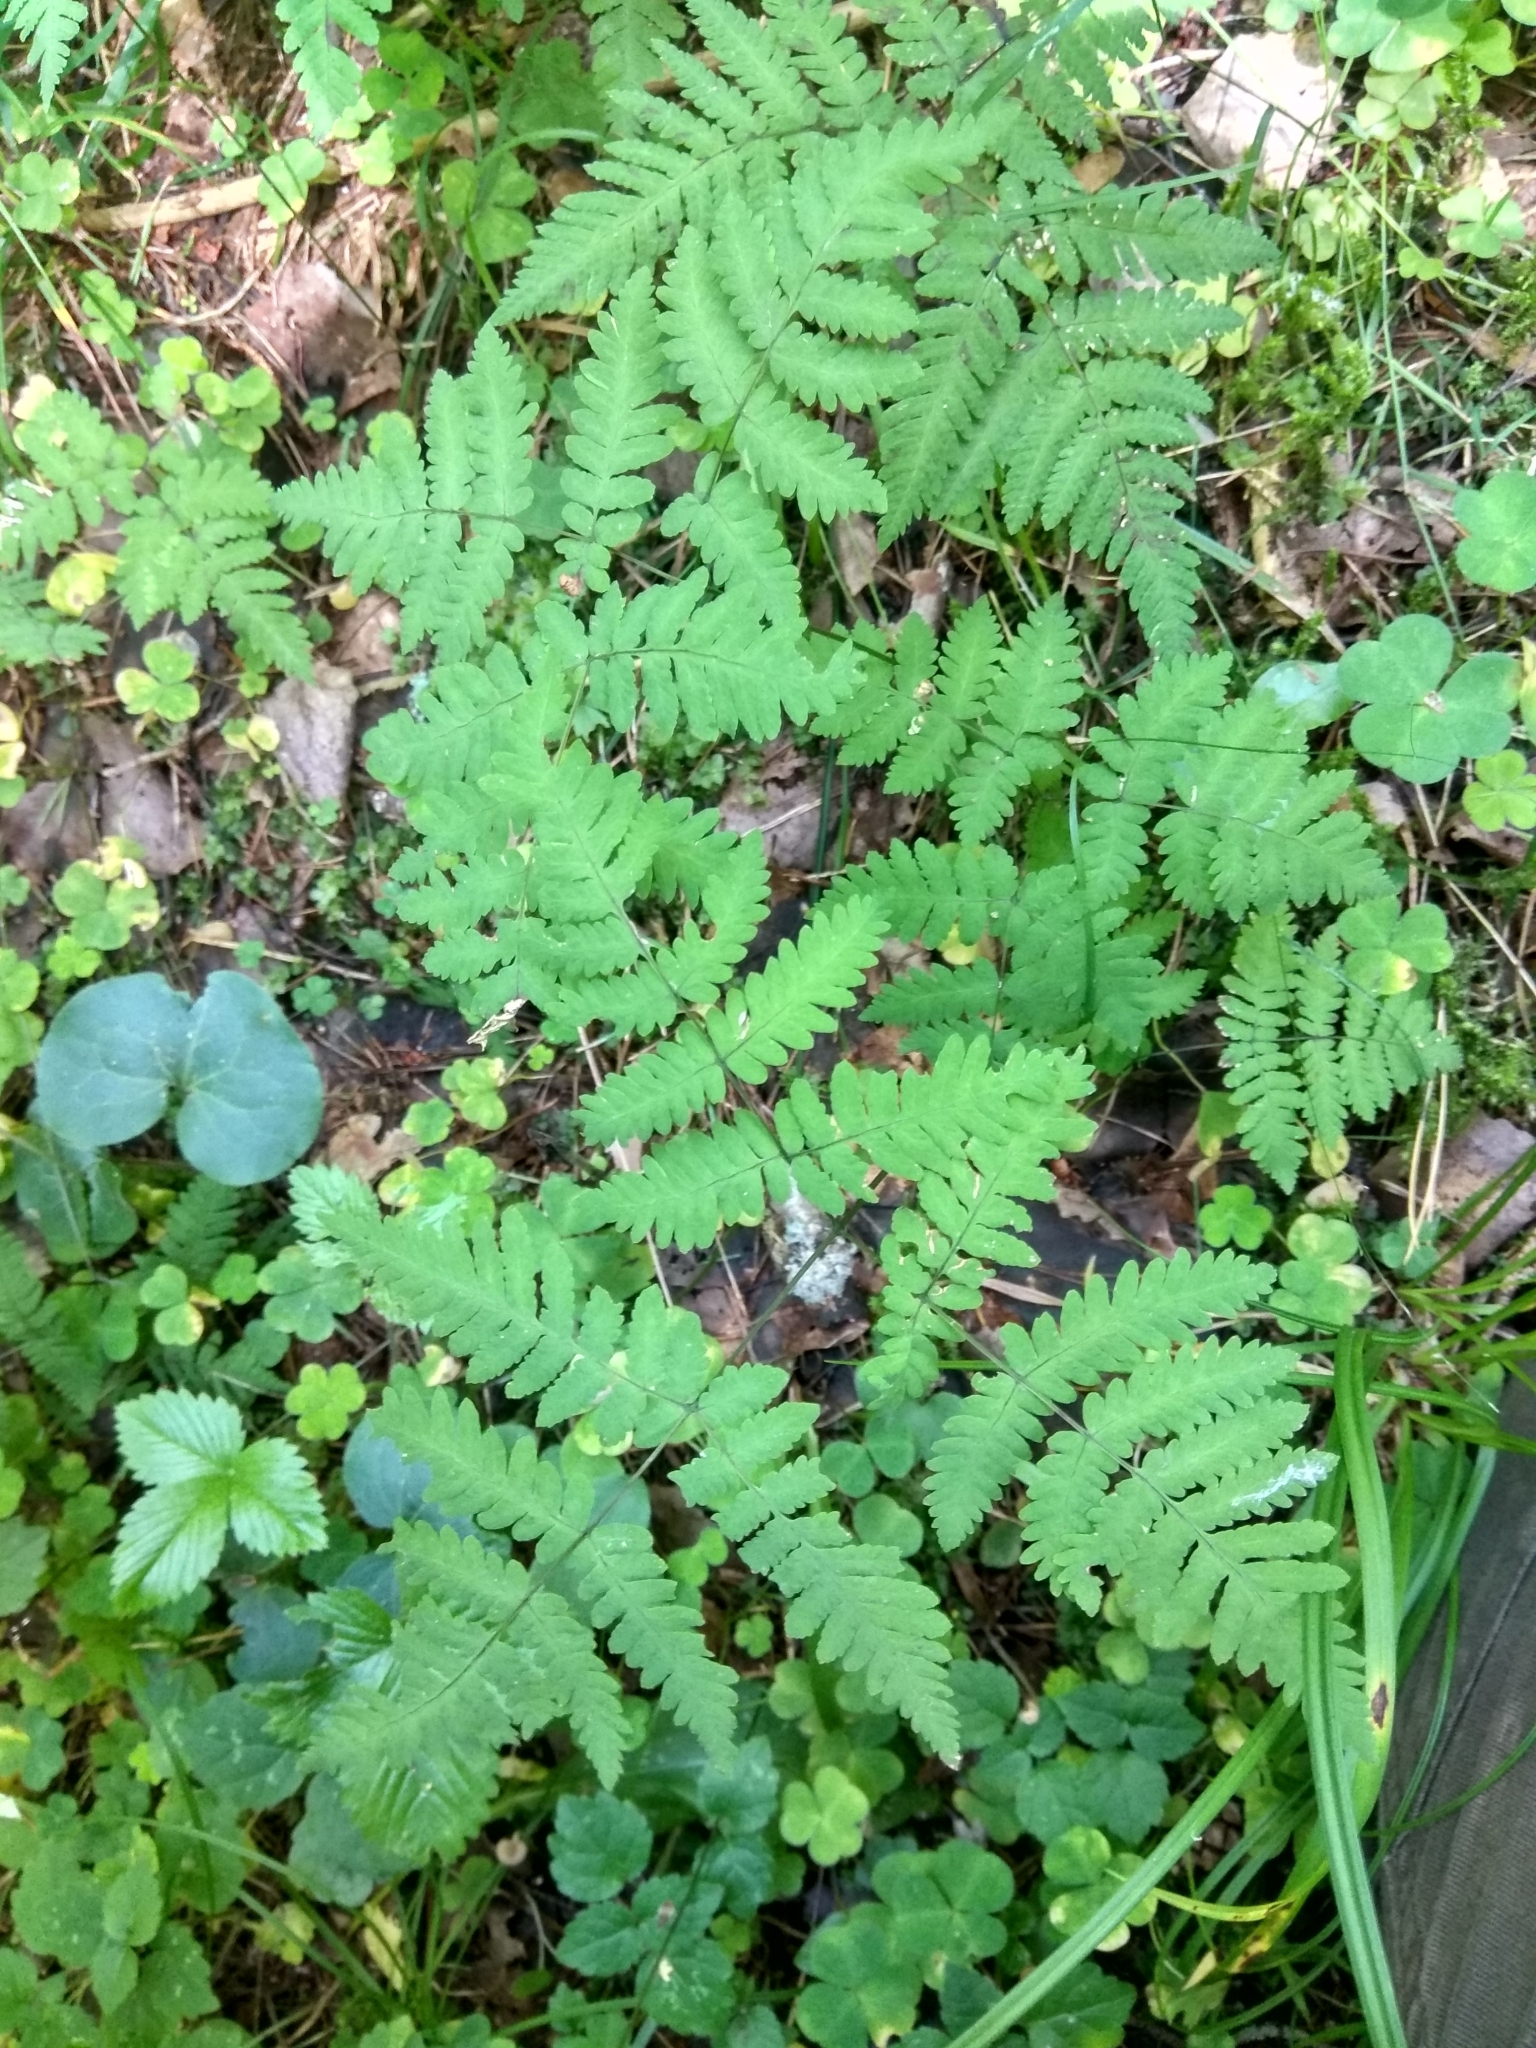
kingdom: Plantae
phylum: Tracheophyta
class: Polypodiopsida
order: Polypodiales
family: Cystopteridaceae
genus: Gymnocarpium
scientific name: Gymnocarpium dryopteris
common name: Oak fern
